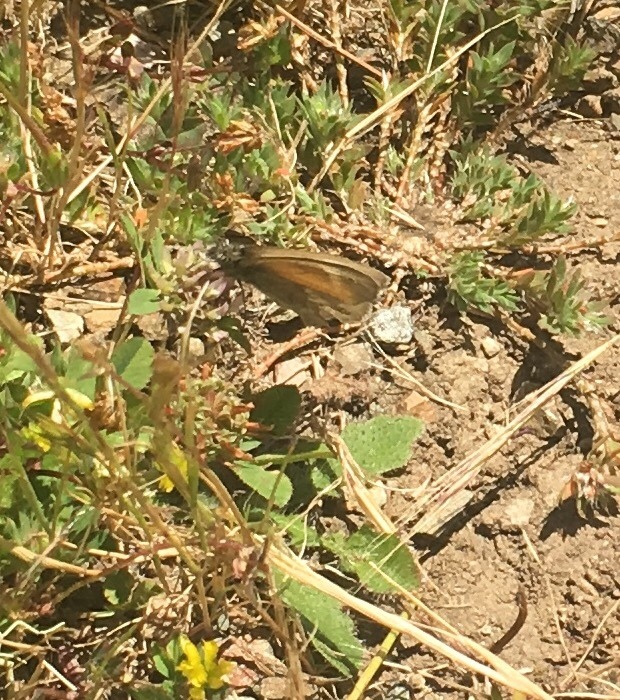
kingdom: Animalia
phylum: Arthropoda
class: Insecta
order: Lepidoptera
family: Nymphalidae
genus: Coenonympha
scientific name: Coenonympha california
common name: Common ringlet
